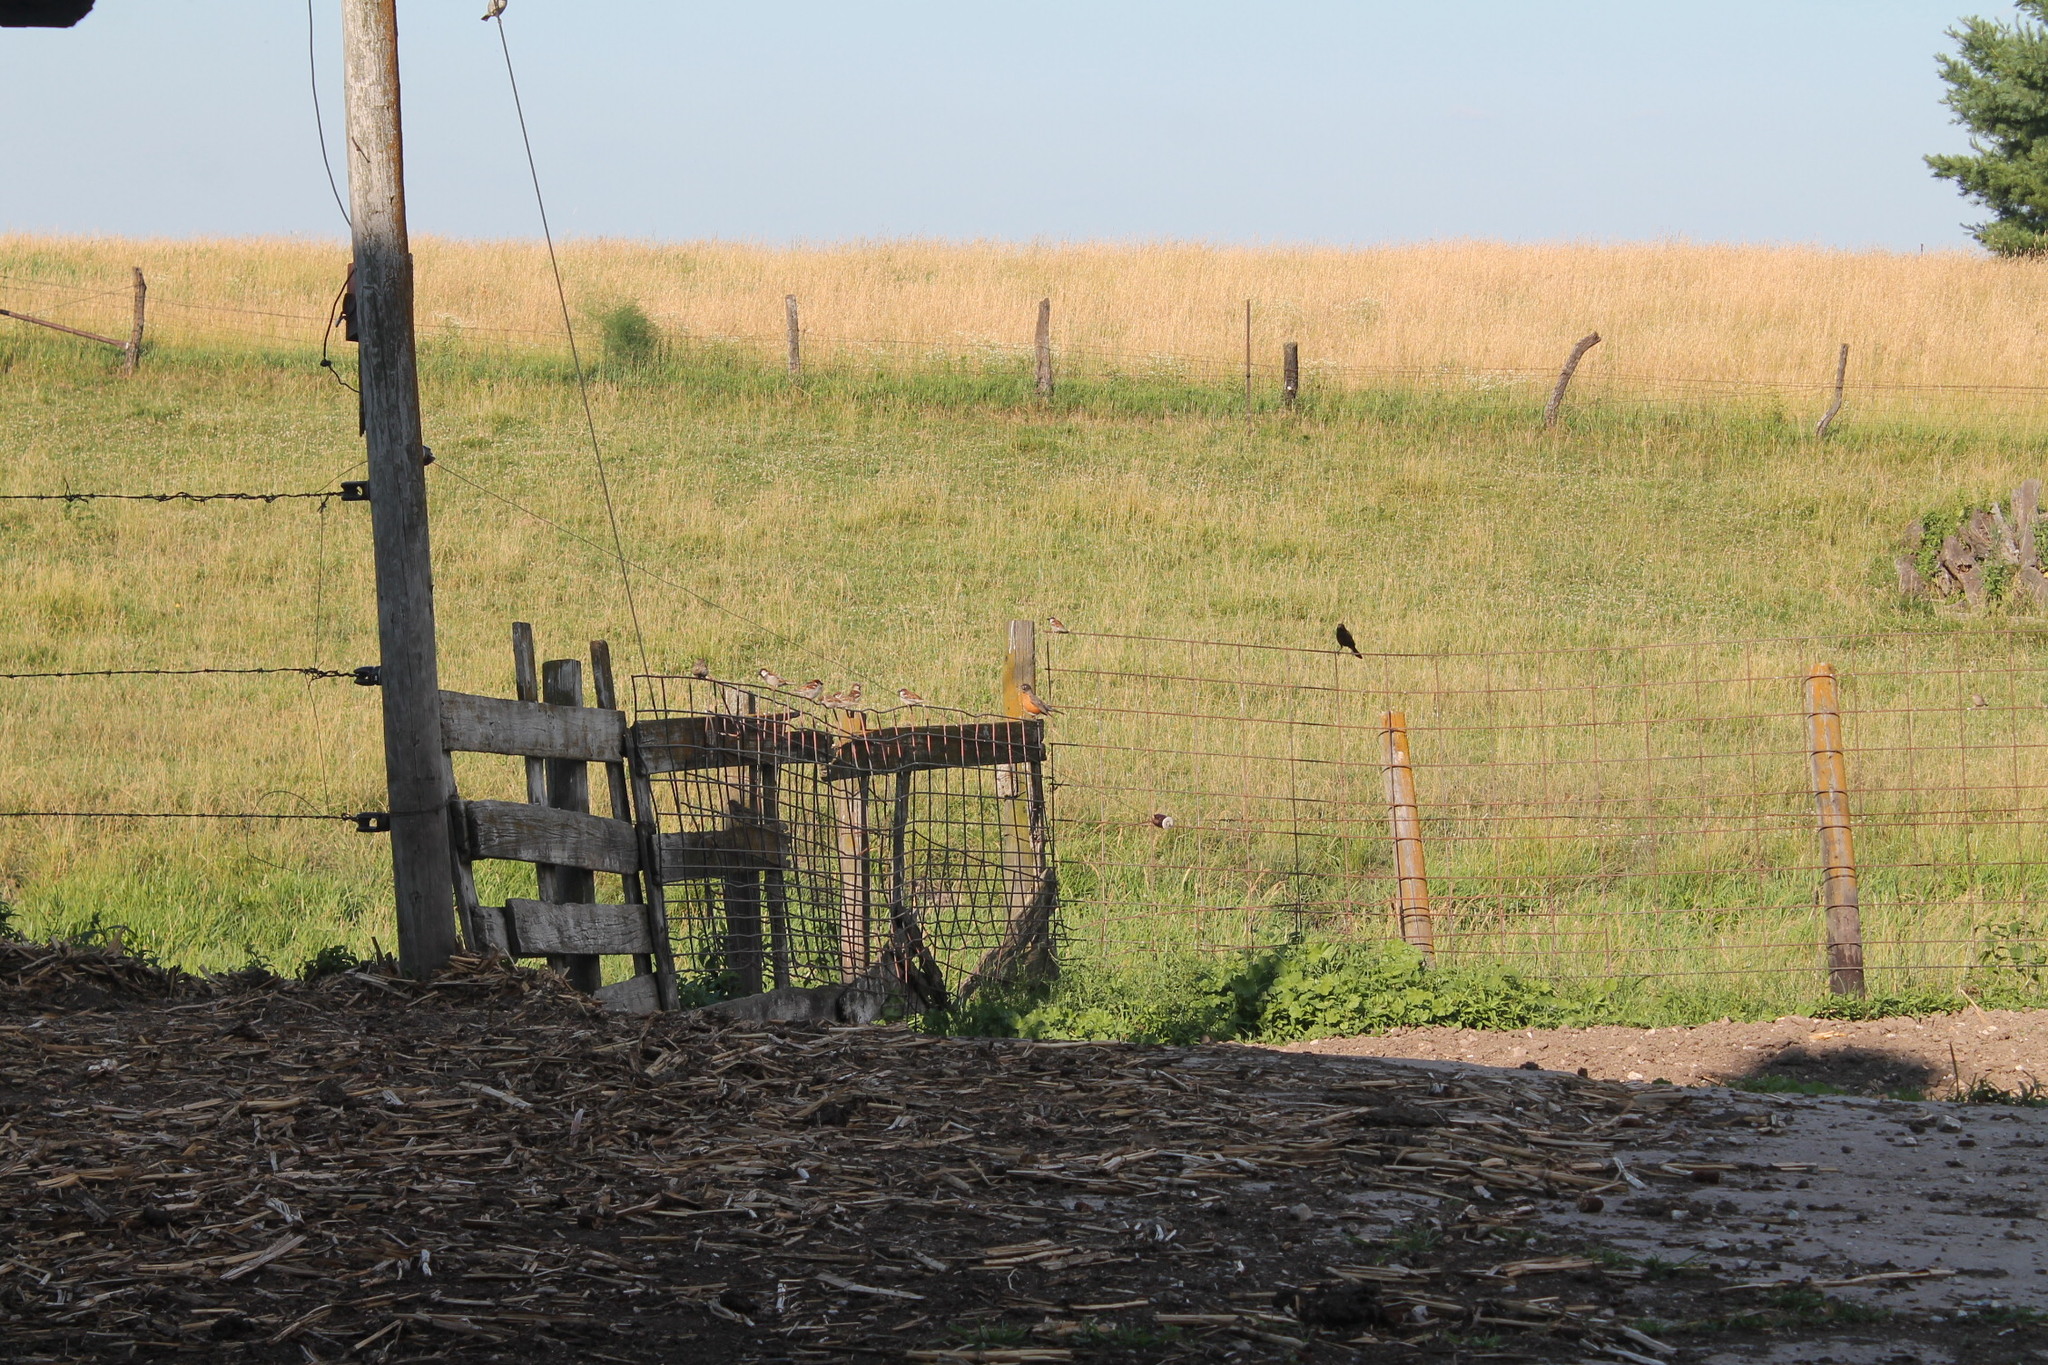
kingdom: Animalia
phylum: Chordata
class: Aves
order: Passeriformes
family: Turdidae
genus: Turdus
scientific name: Turdus migratorius
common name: American robin
